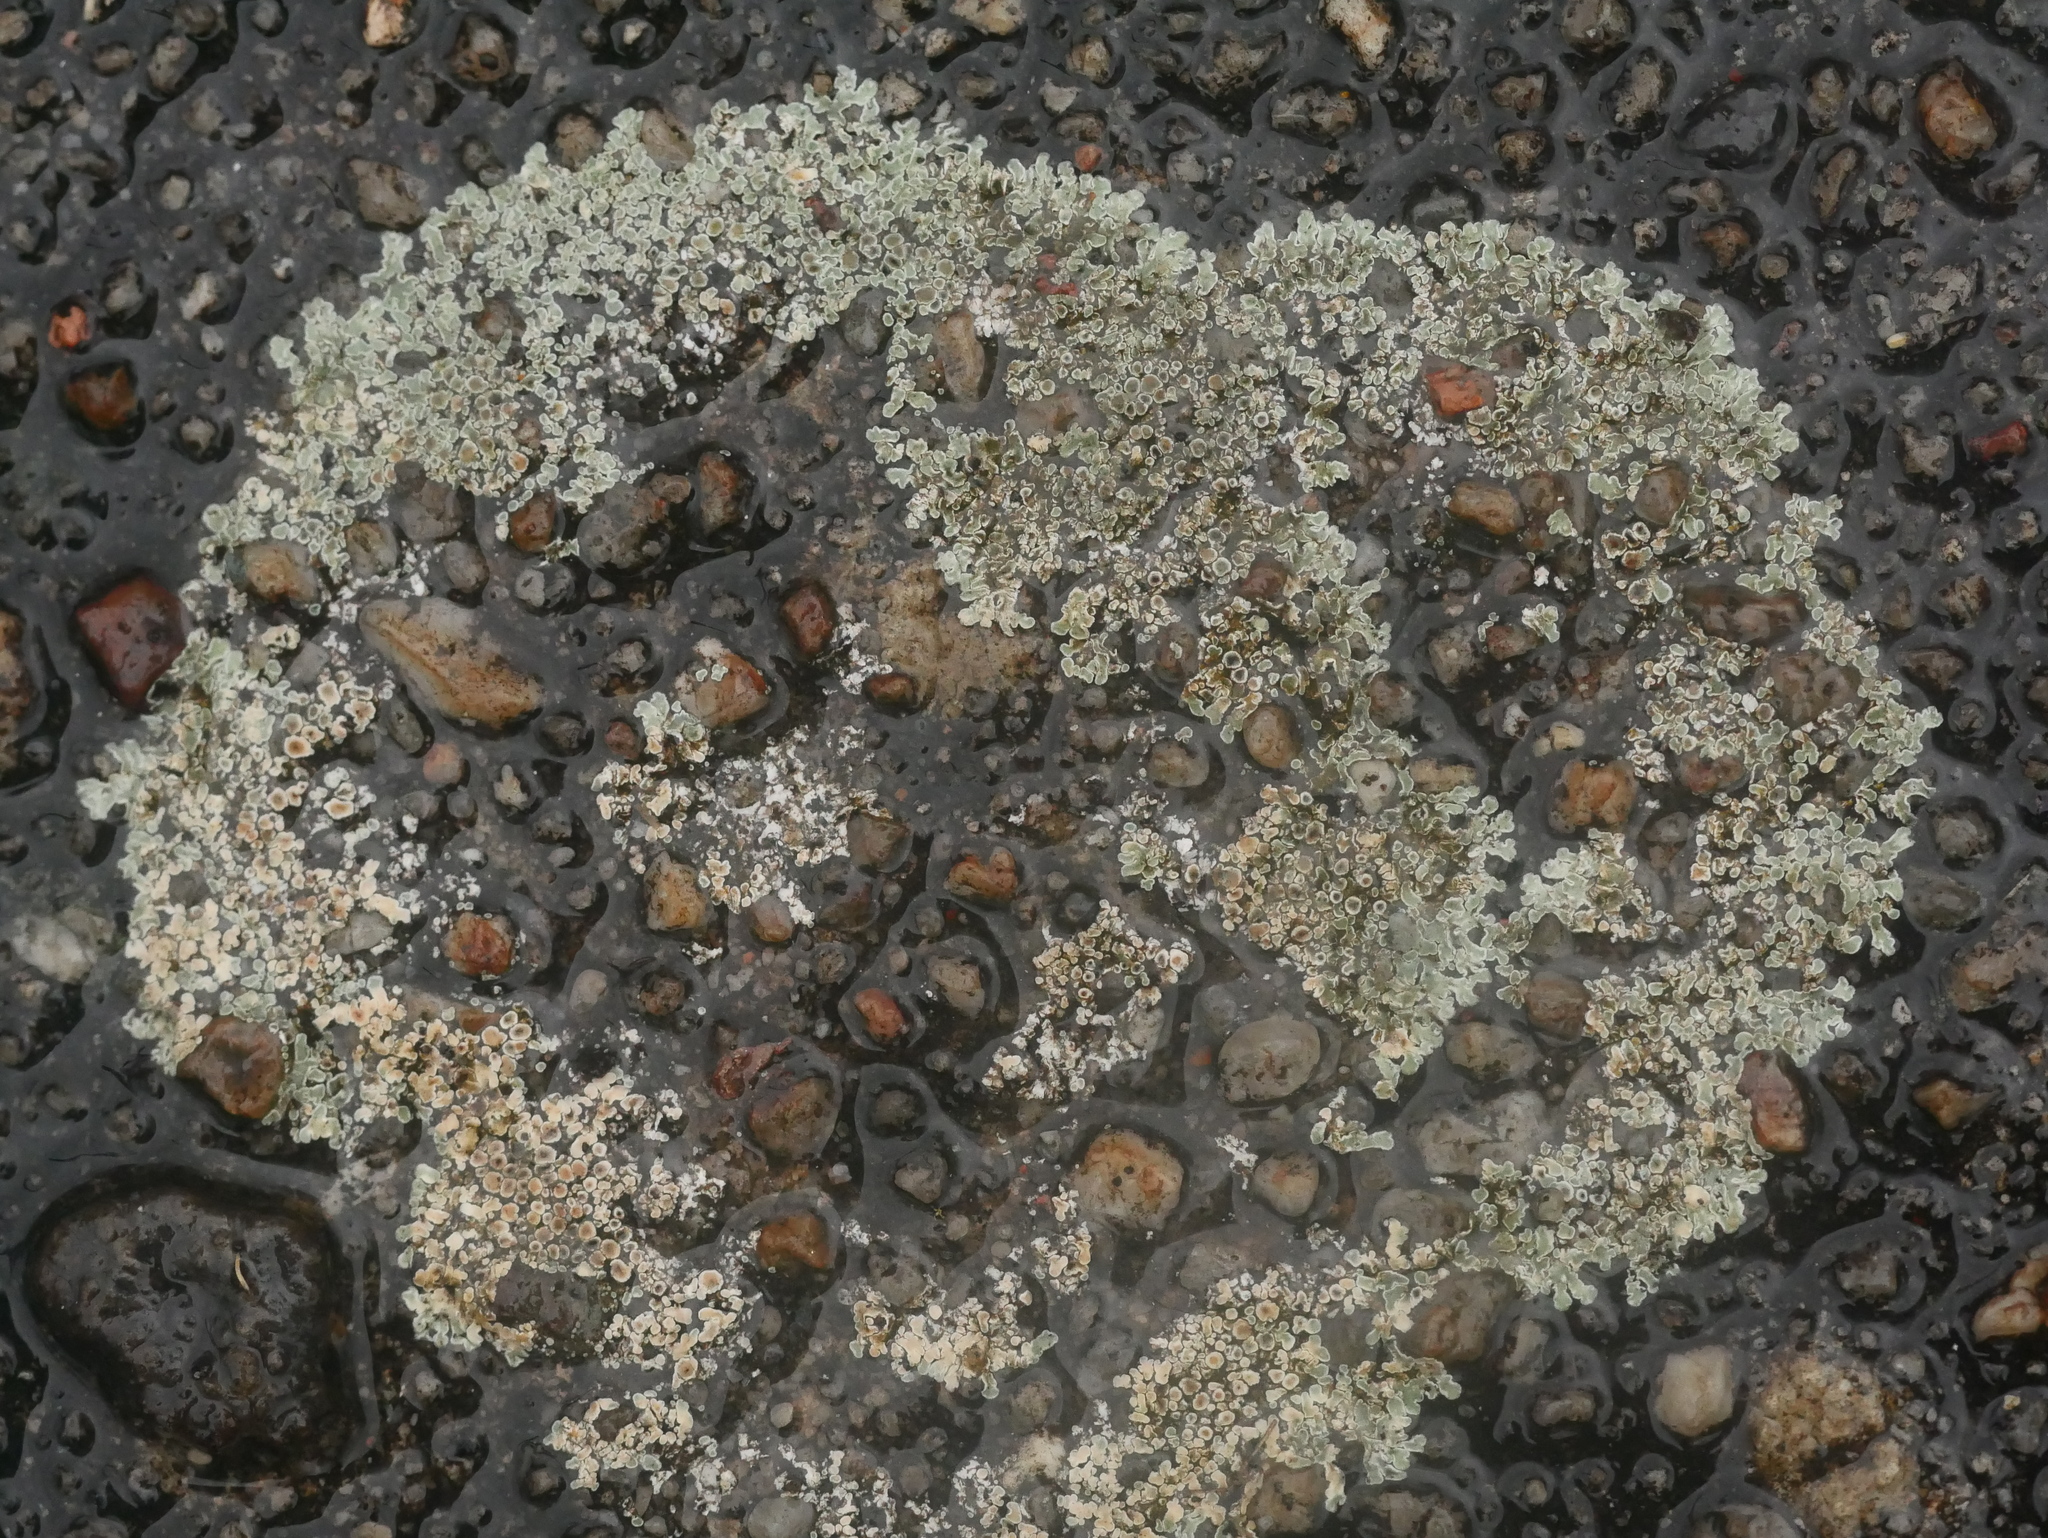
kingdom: Fungi
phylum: Ascomycota
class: Lecanoromycetes
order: Lecanorales
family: Lecanoraceae
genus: Protoparmeliopsis
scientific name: Protoparmeliopsis muralis
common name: Stonewall rim lichen
